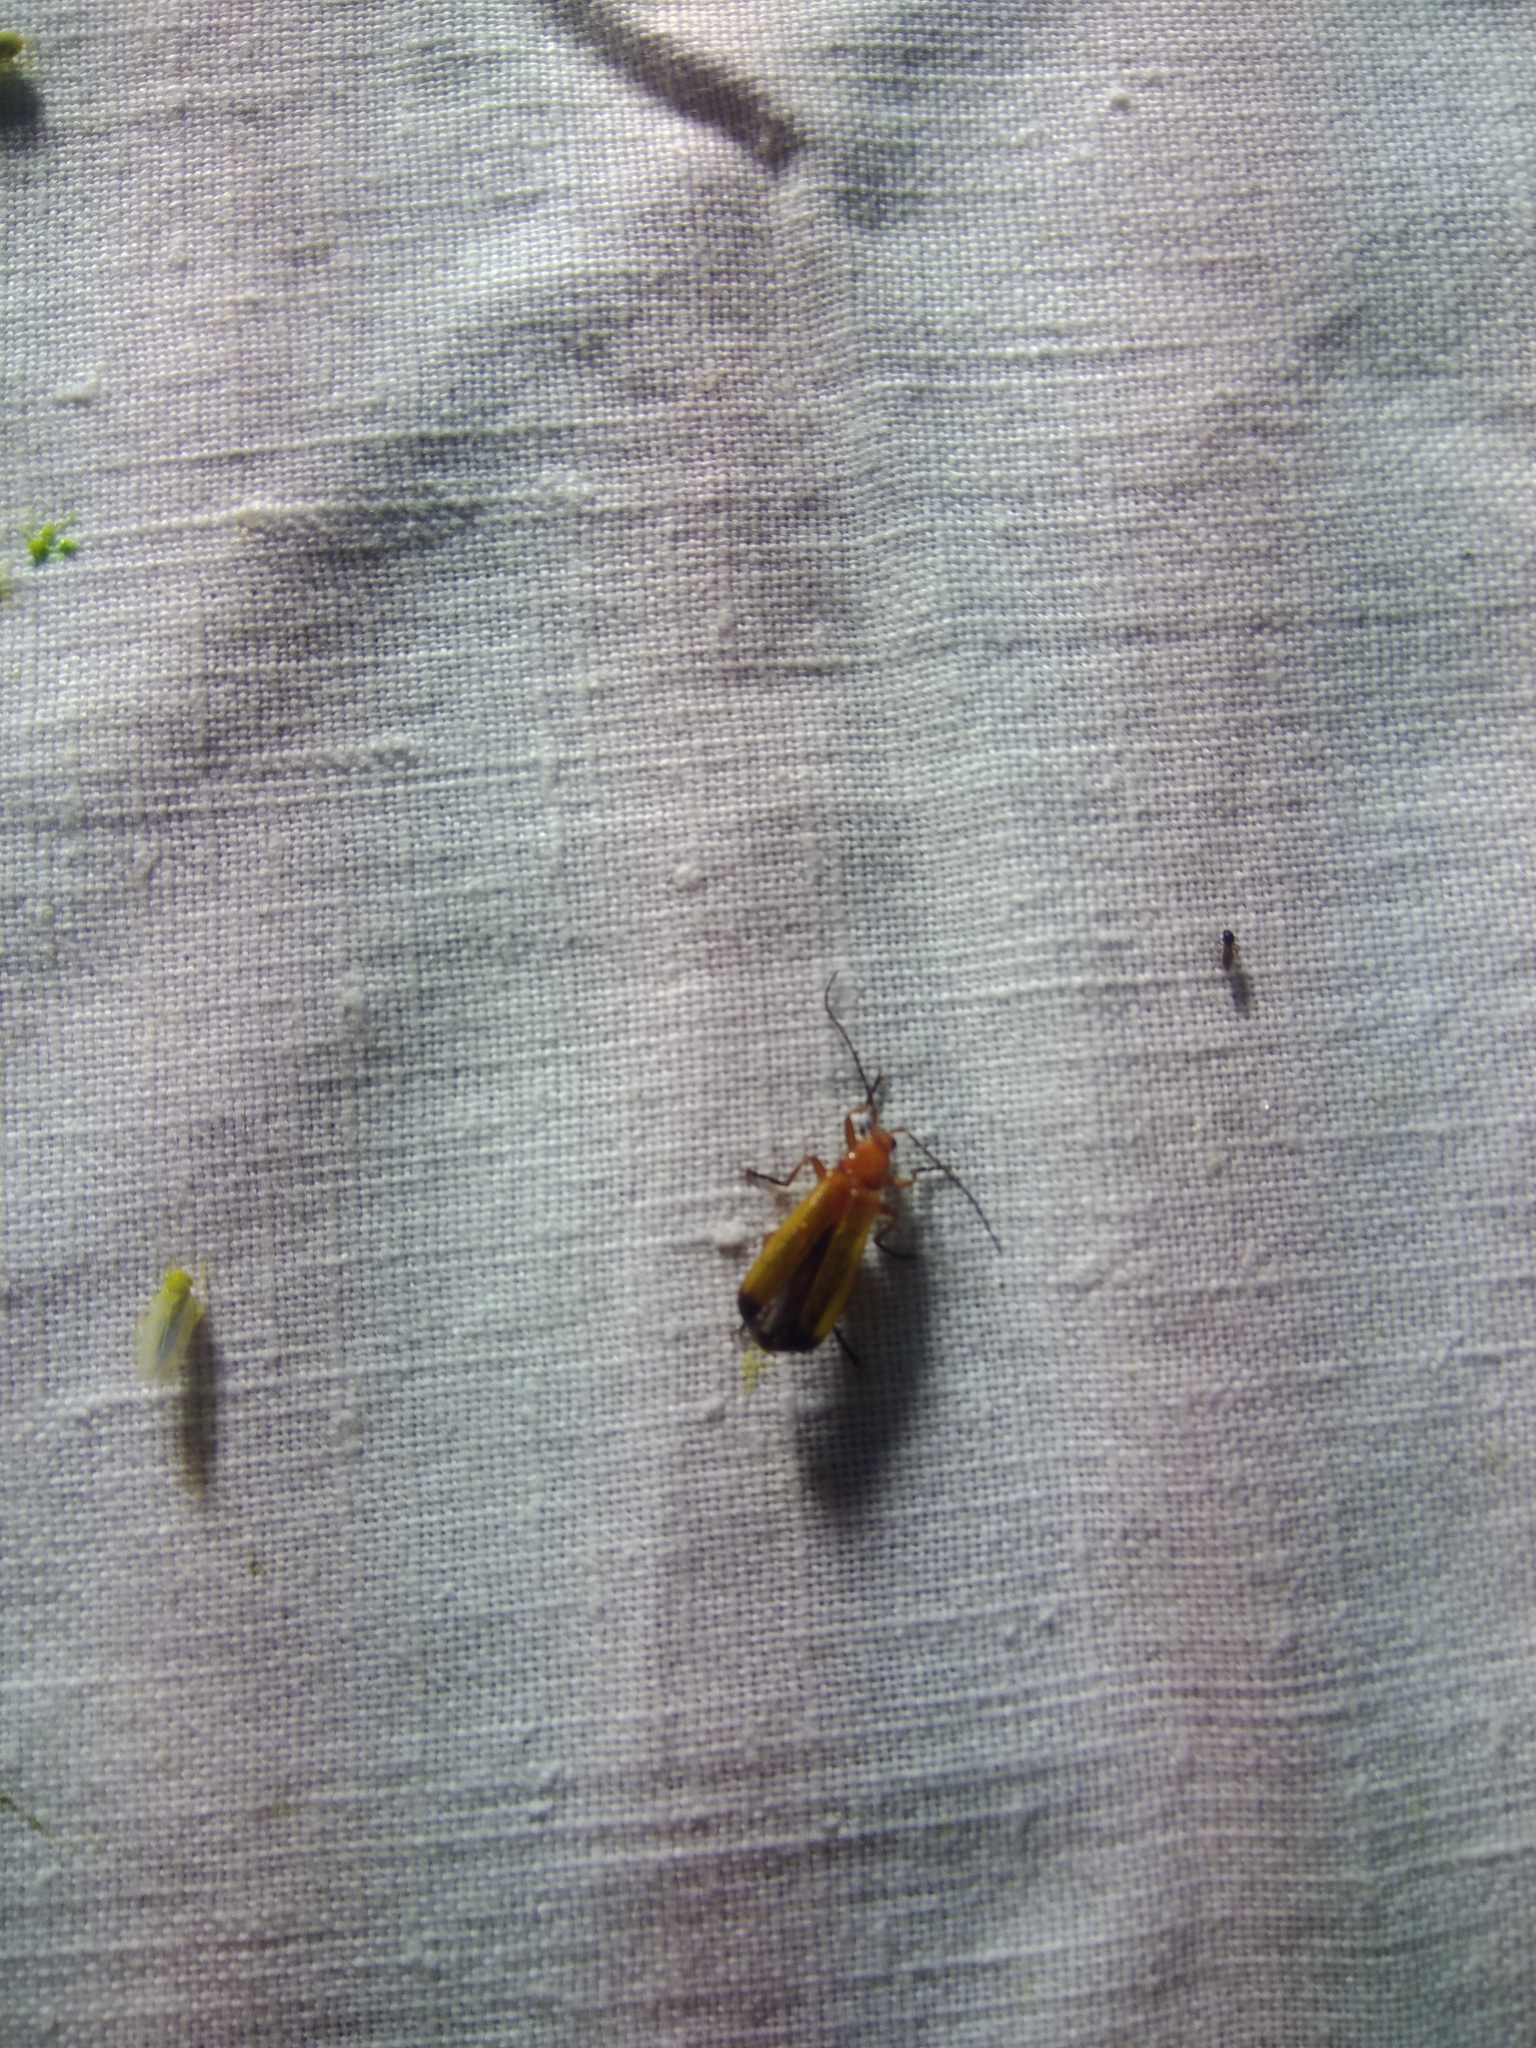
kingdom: Animalia
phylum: Arthropoda
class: Insecta
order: Coleoptera
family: Cantharidae
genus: Rhagonycha
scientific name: Rhagonycha fulva
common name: Common red soldier beetle
